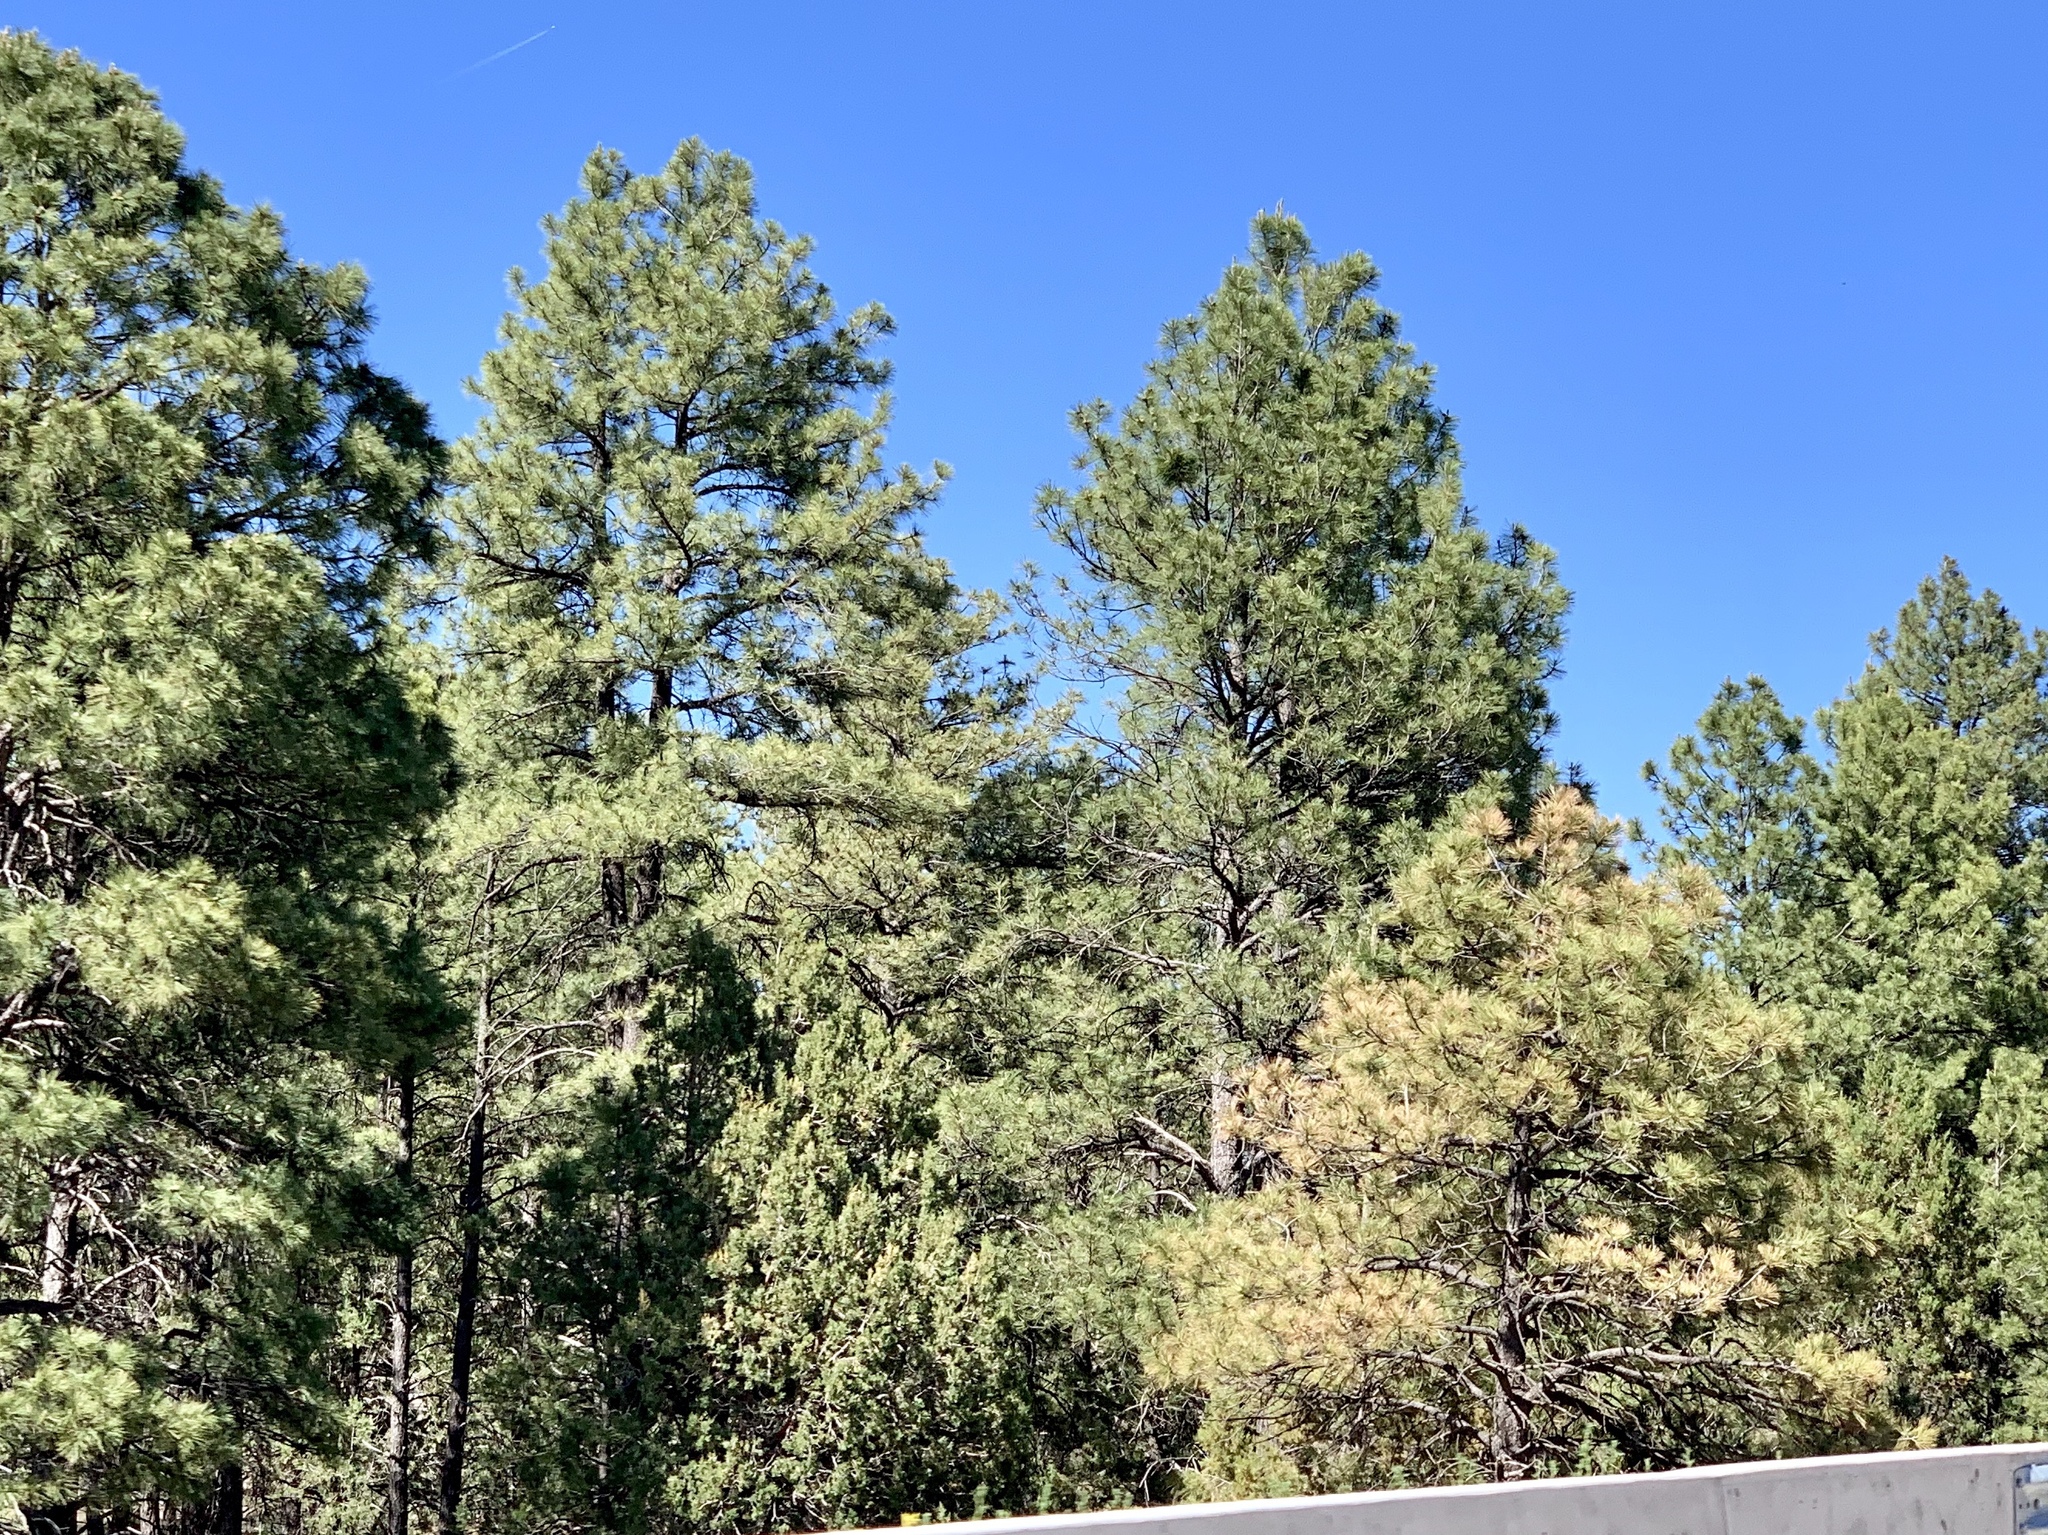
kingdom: Plantae
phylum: Tracheophyta
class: Pinopsida
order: Pinales
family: Pinaceae
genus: Pinus
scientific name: Pinus ponderosa
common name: Western yellow-pine
